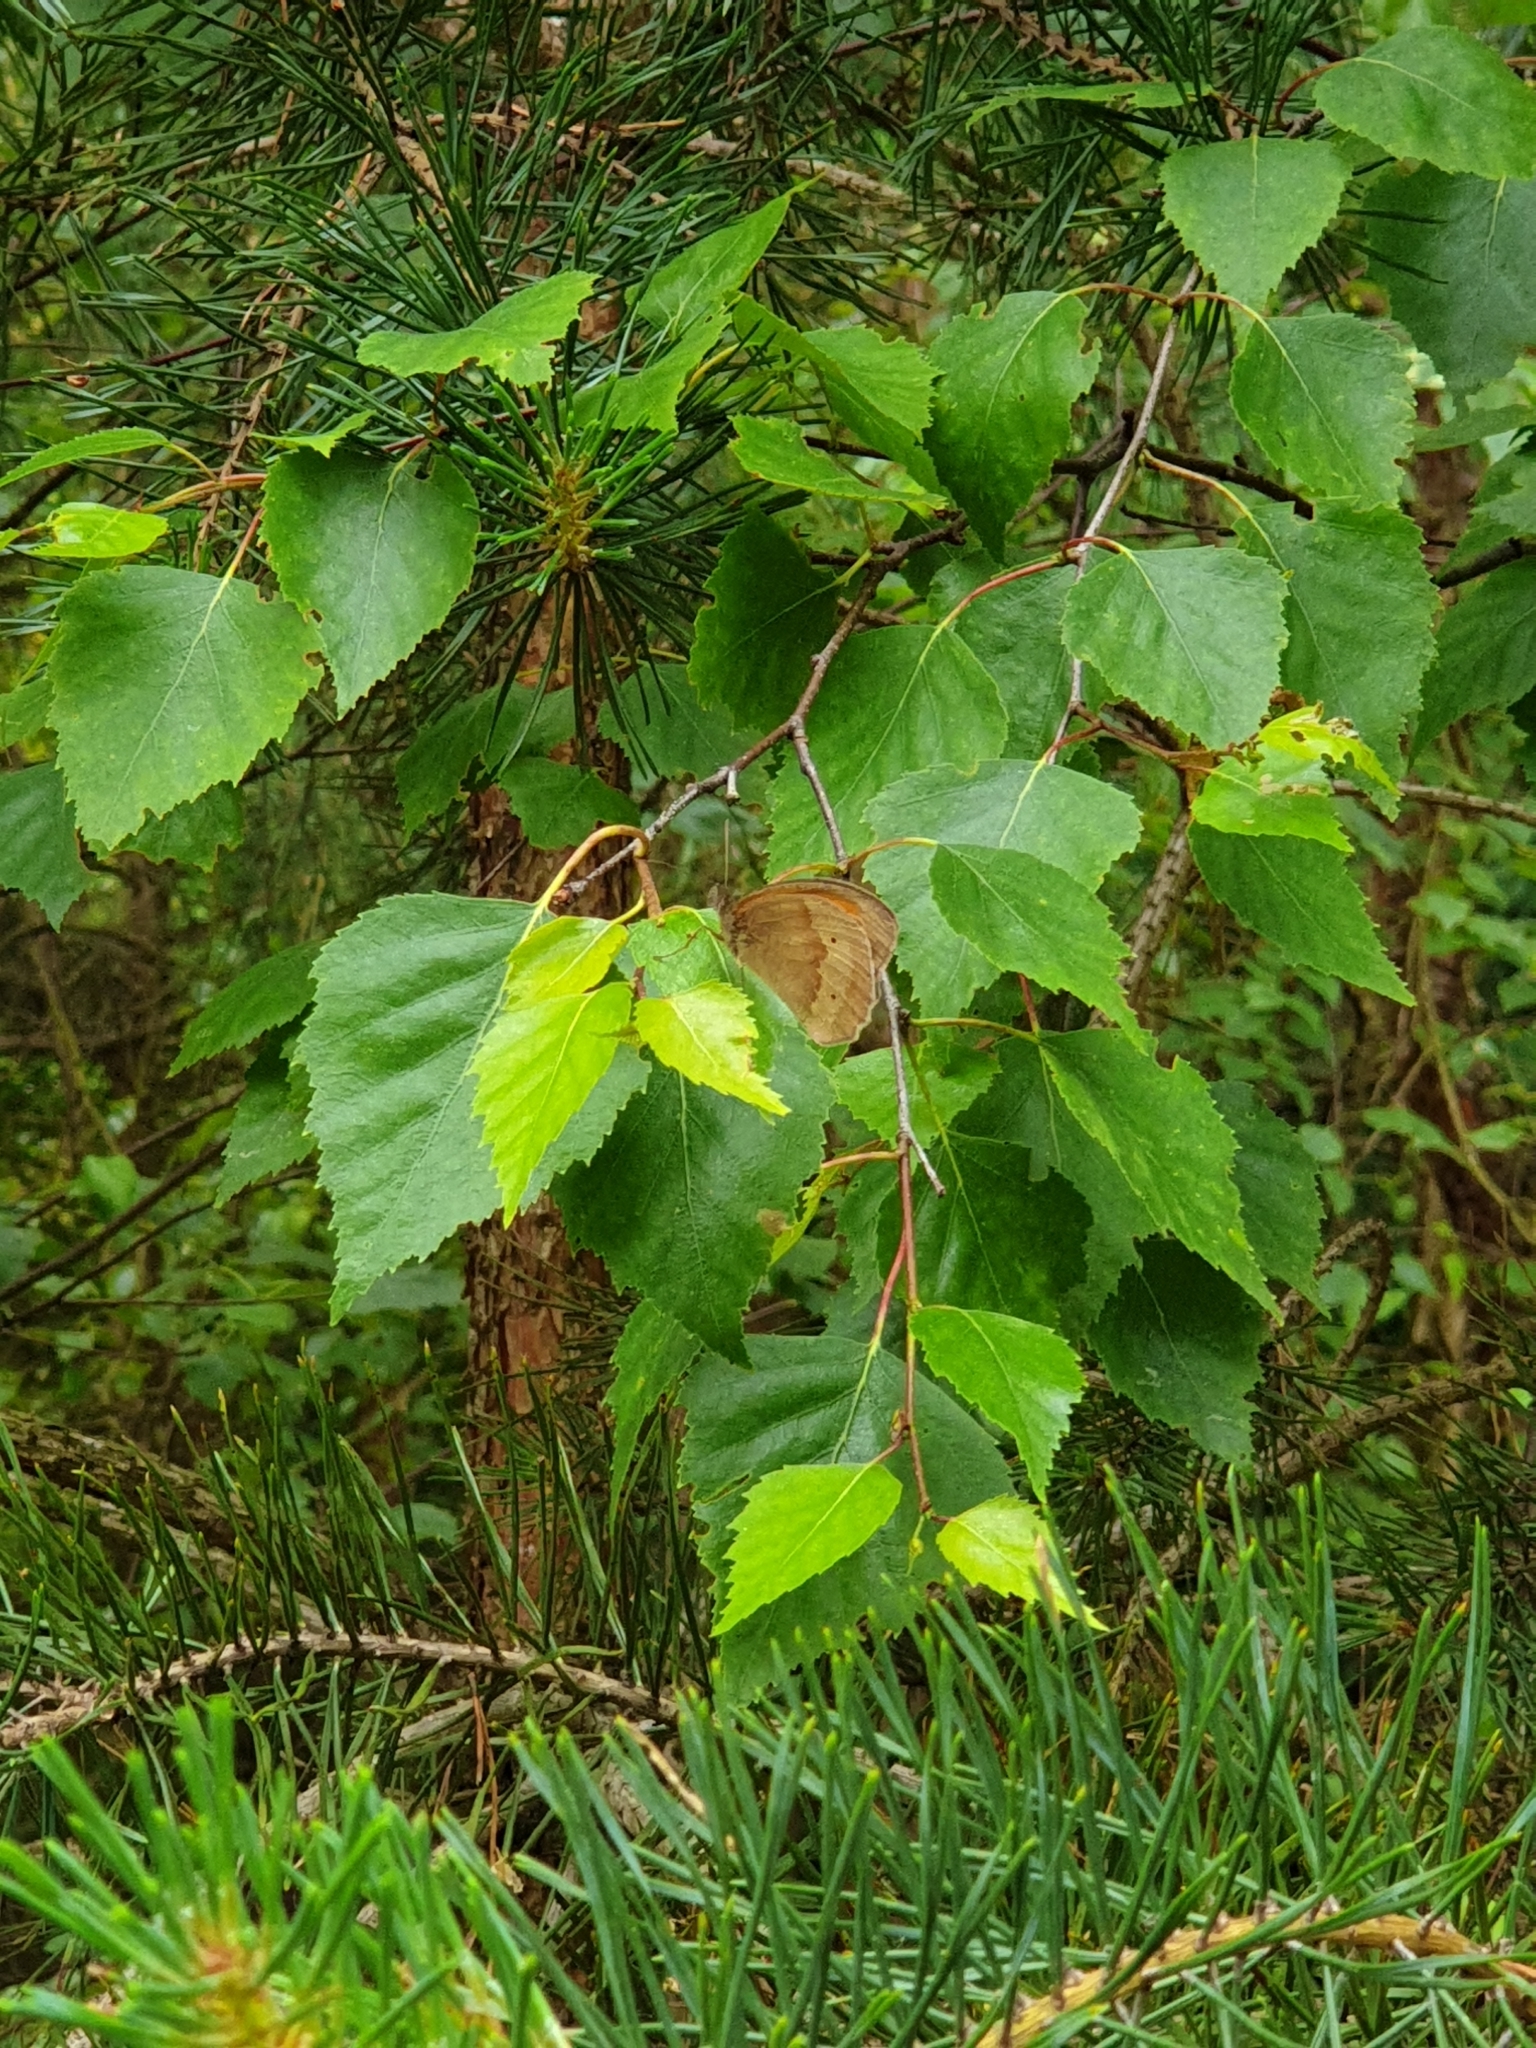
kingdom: Animalia
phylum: Arthropoda
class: Insecta
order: Lepidoptera
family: Nymphalidae
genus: Maniola
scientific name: Maniola jurtina
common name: Meadow brown
